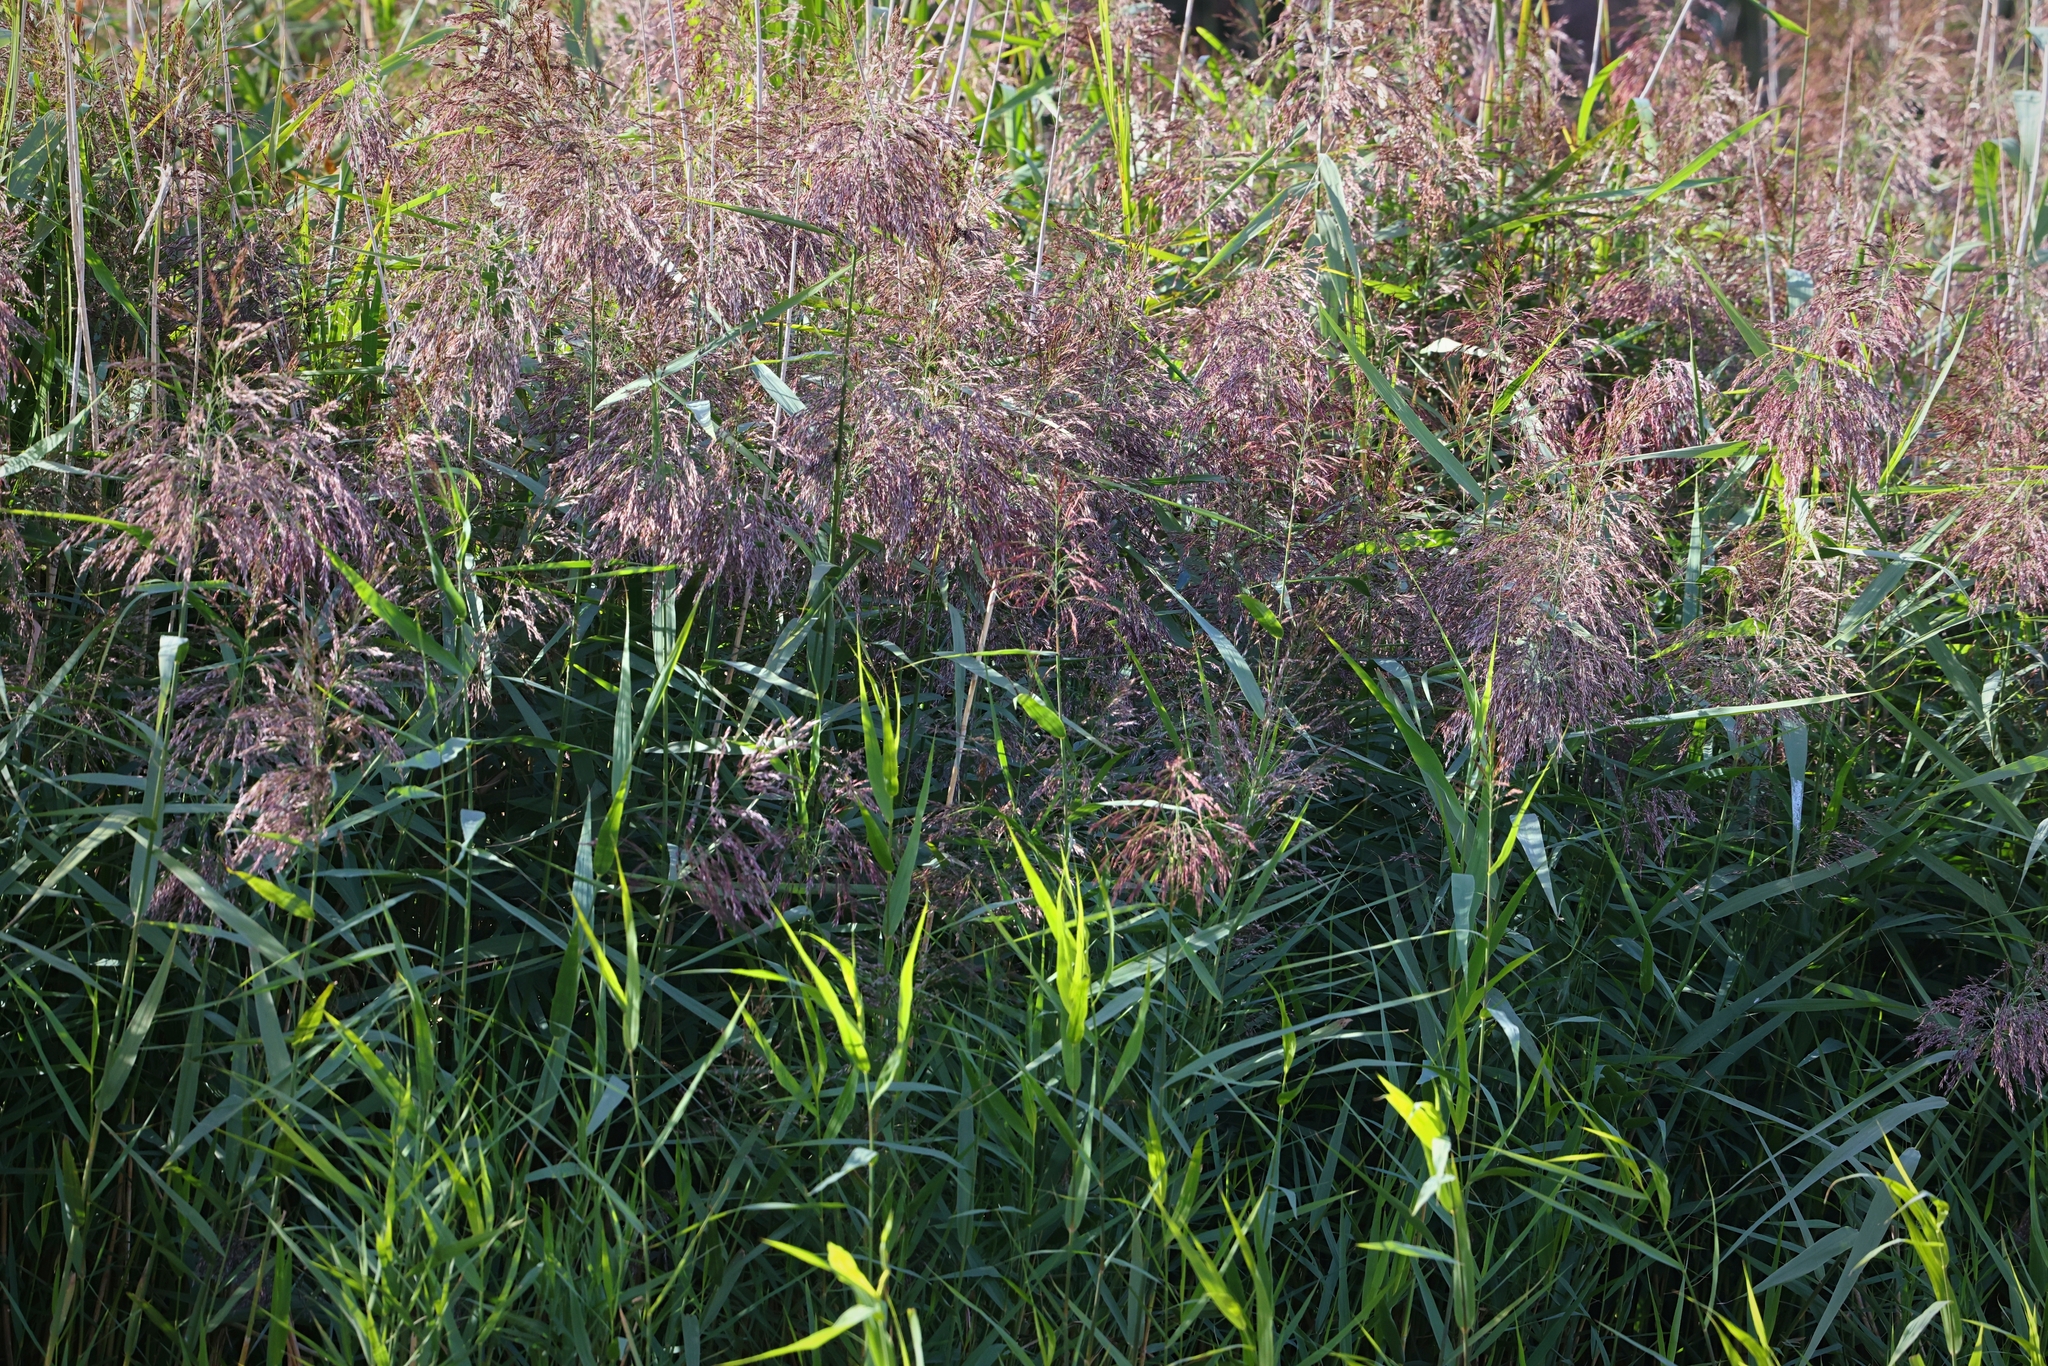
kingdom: Plantae
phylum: Tracheophyta
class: Liliopsida
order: Poales
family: Poaceae
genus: Phragmites
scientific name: Phragmites australis
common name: Common reed
